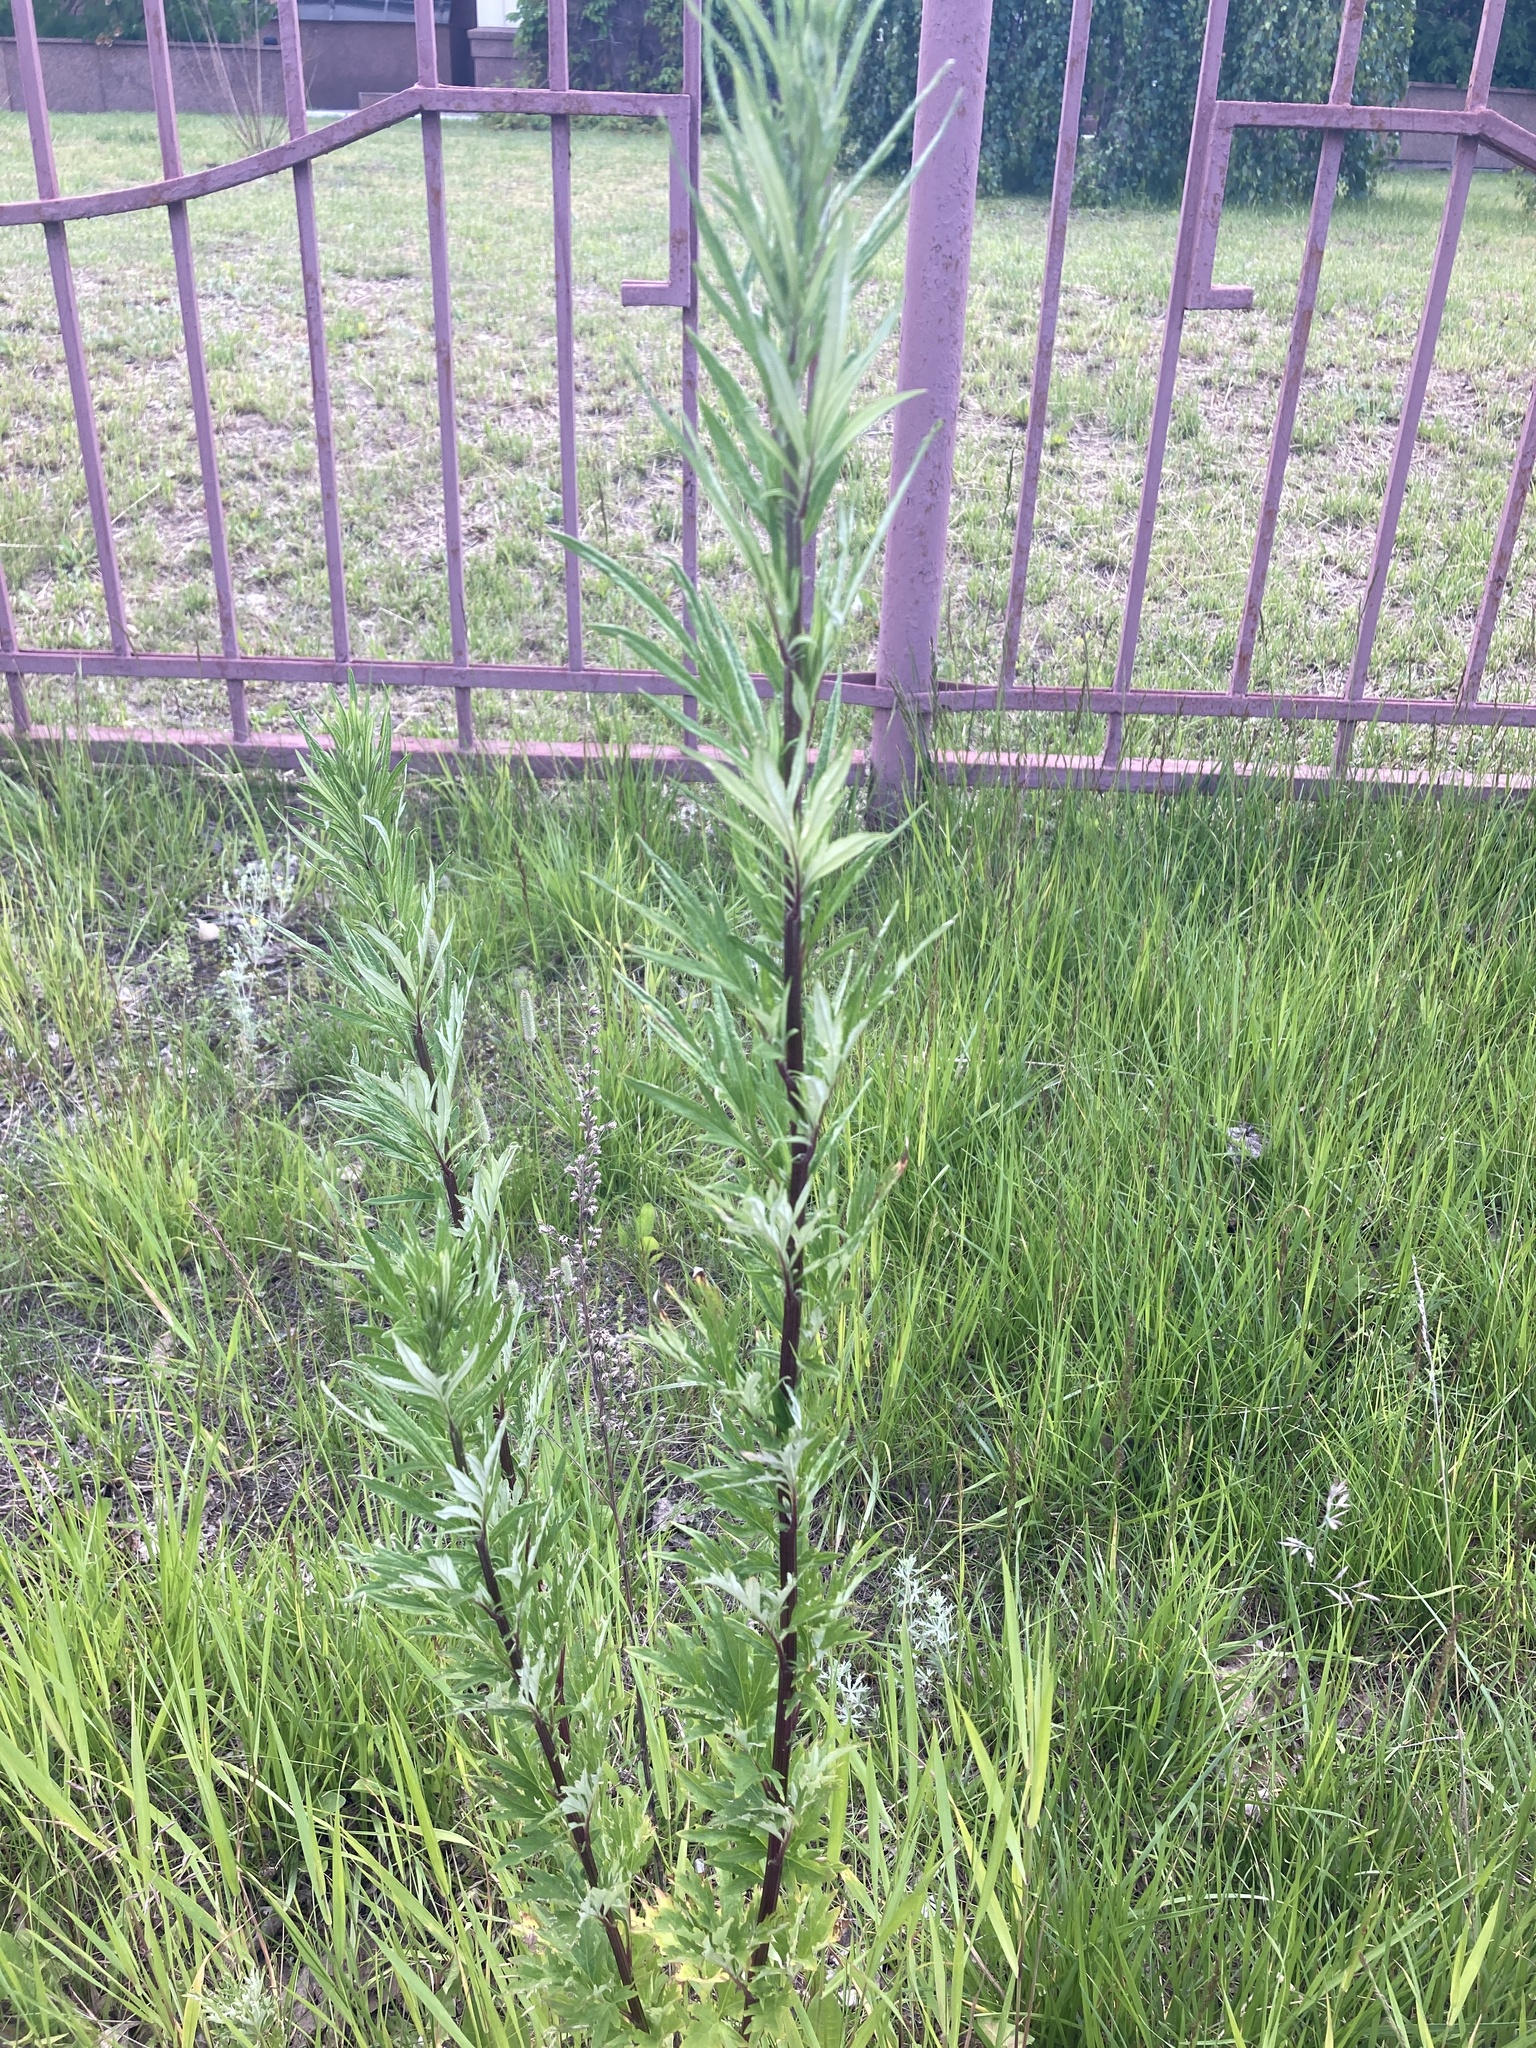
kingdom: Plantae
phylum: Tracheophyta
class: Magnoliopsida
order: Asterales
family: Asteraceae
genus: Artemisia
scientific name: Artemisia vulgaris
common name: Mugwort
